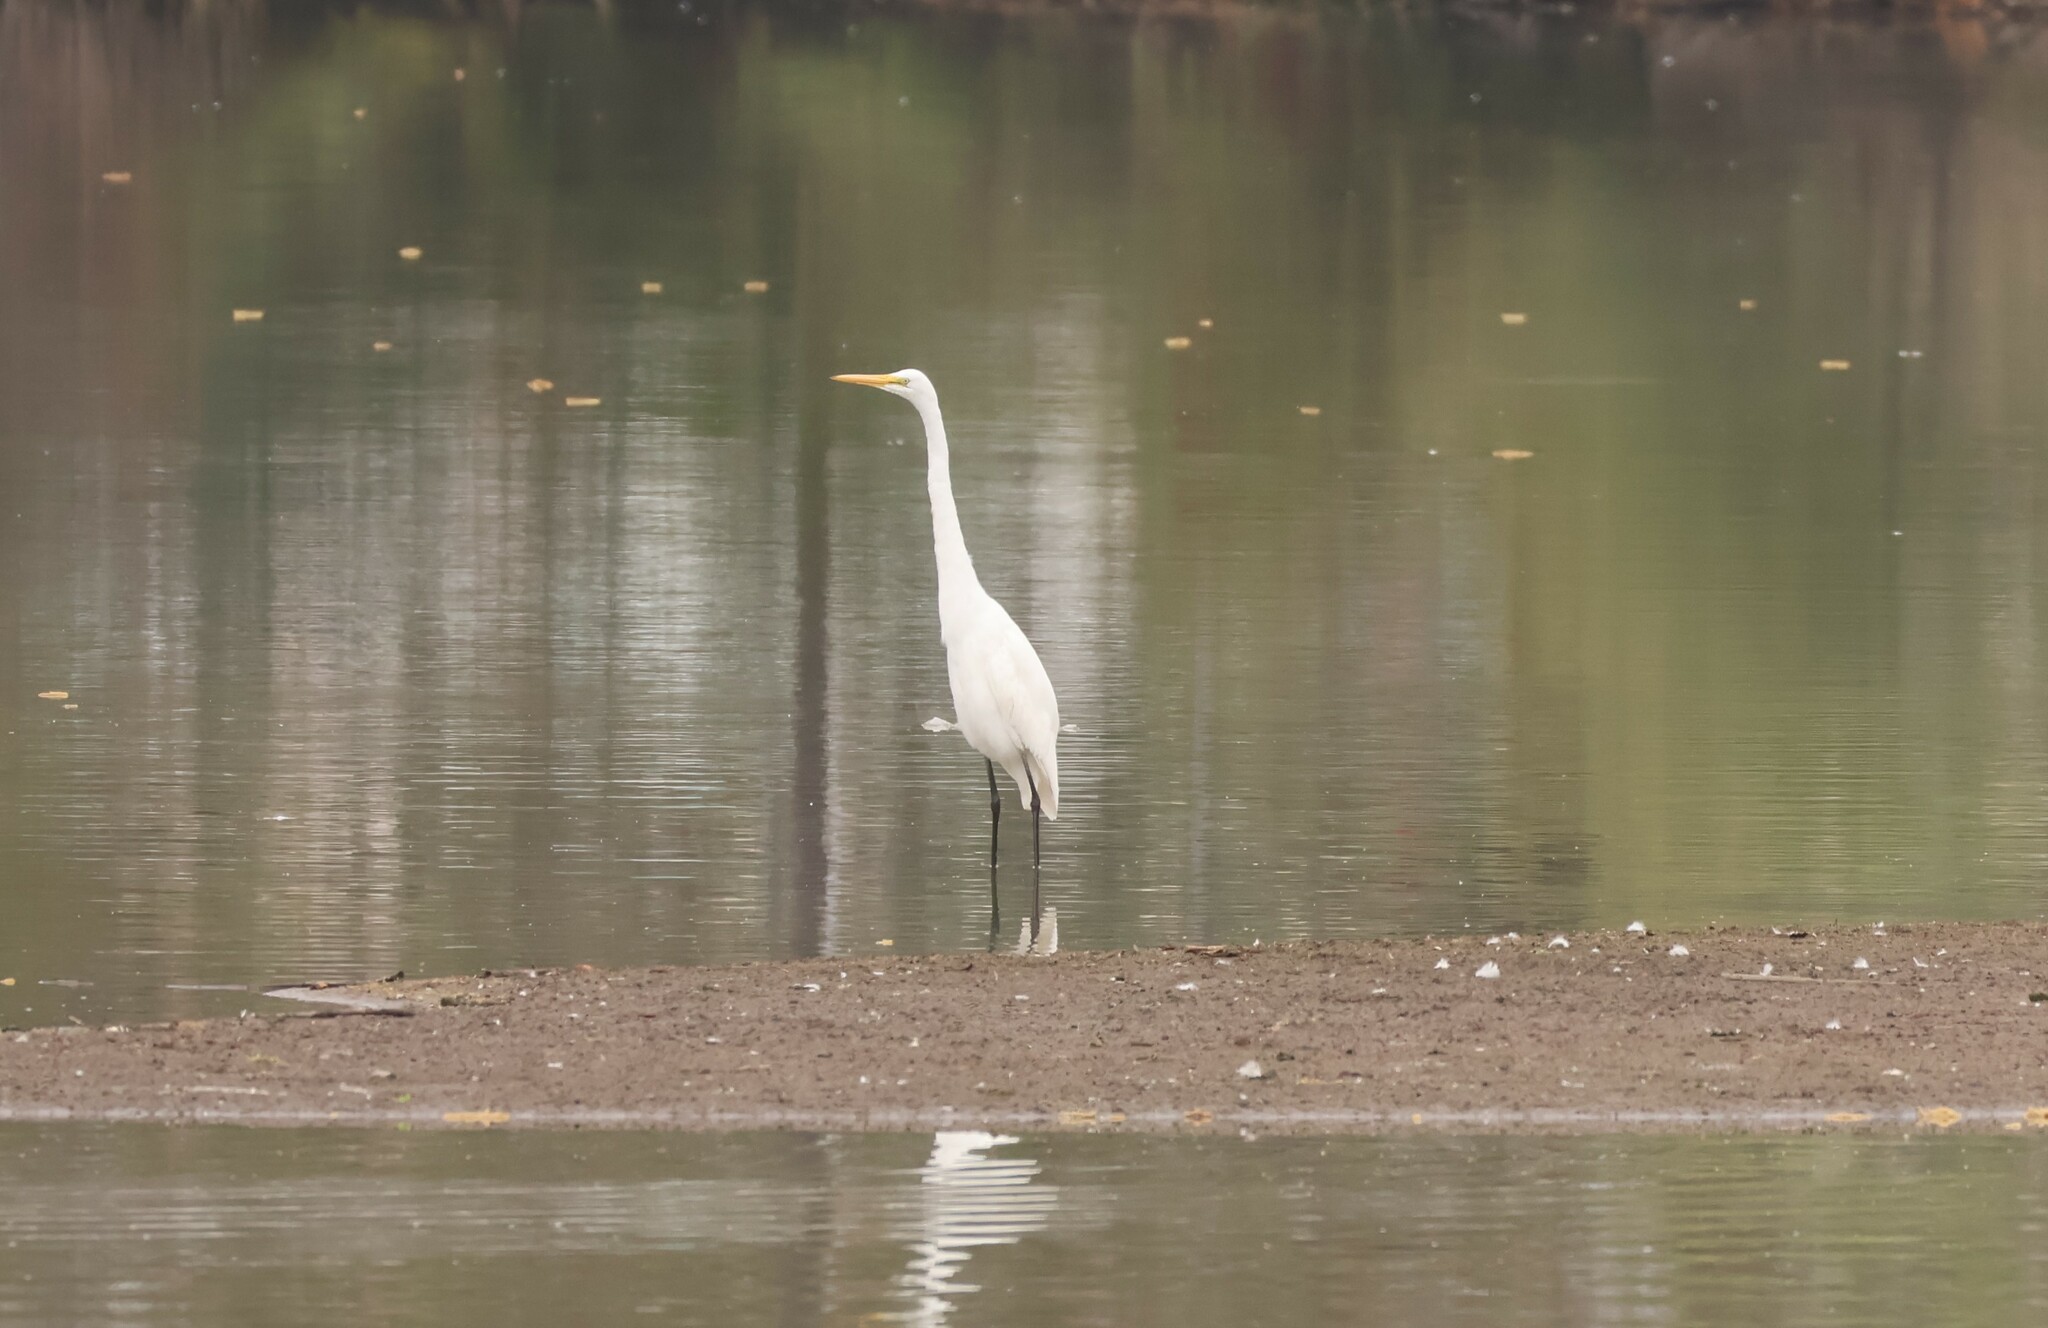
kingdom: Animalia
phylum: Chordata
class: Aves
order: Pelecaniformes
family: Ardeidae
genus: Ardea
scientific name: Ardea alba
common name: Great egret
